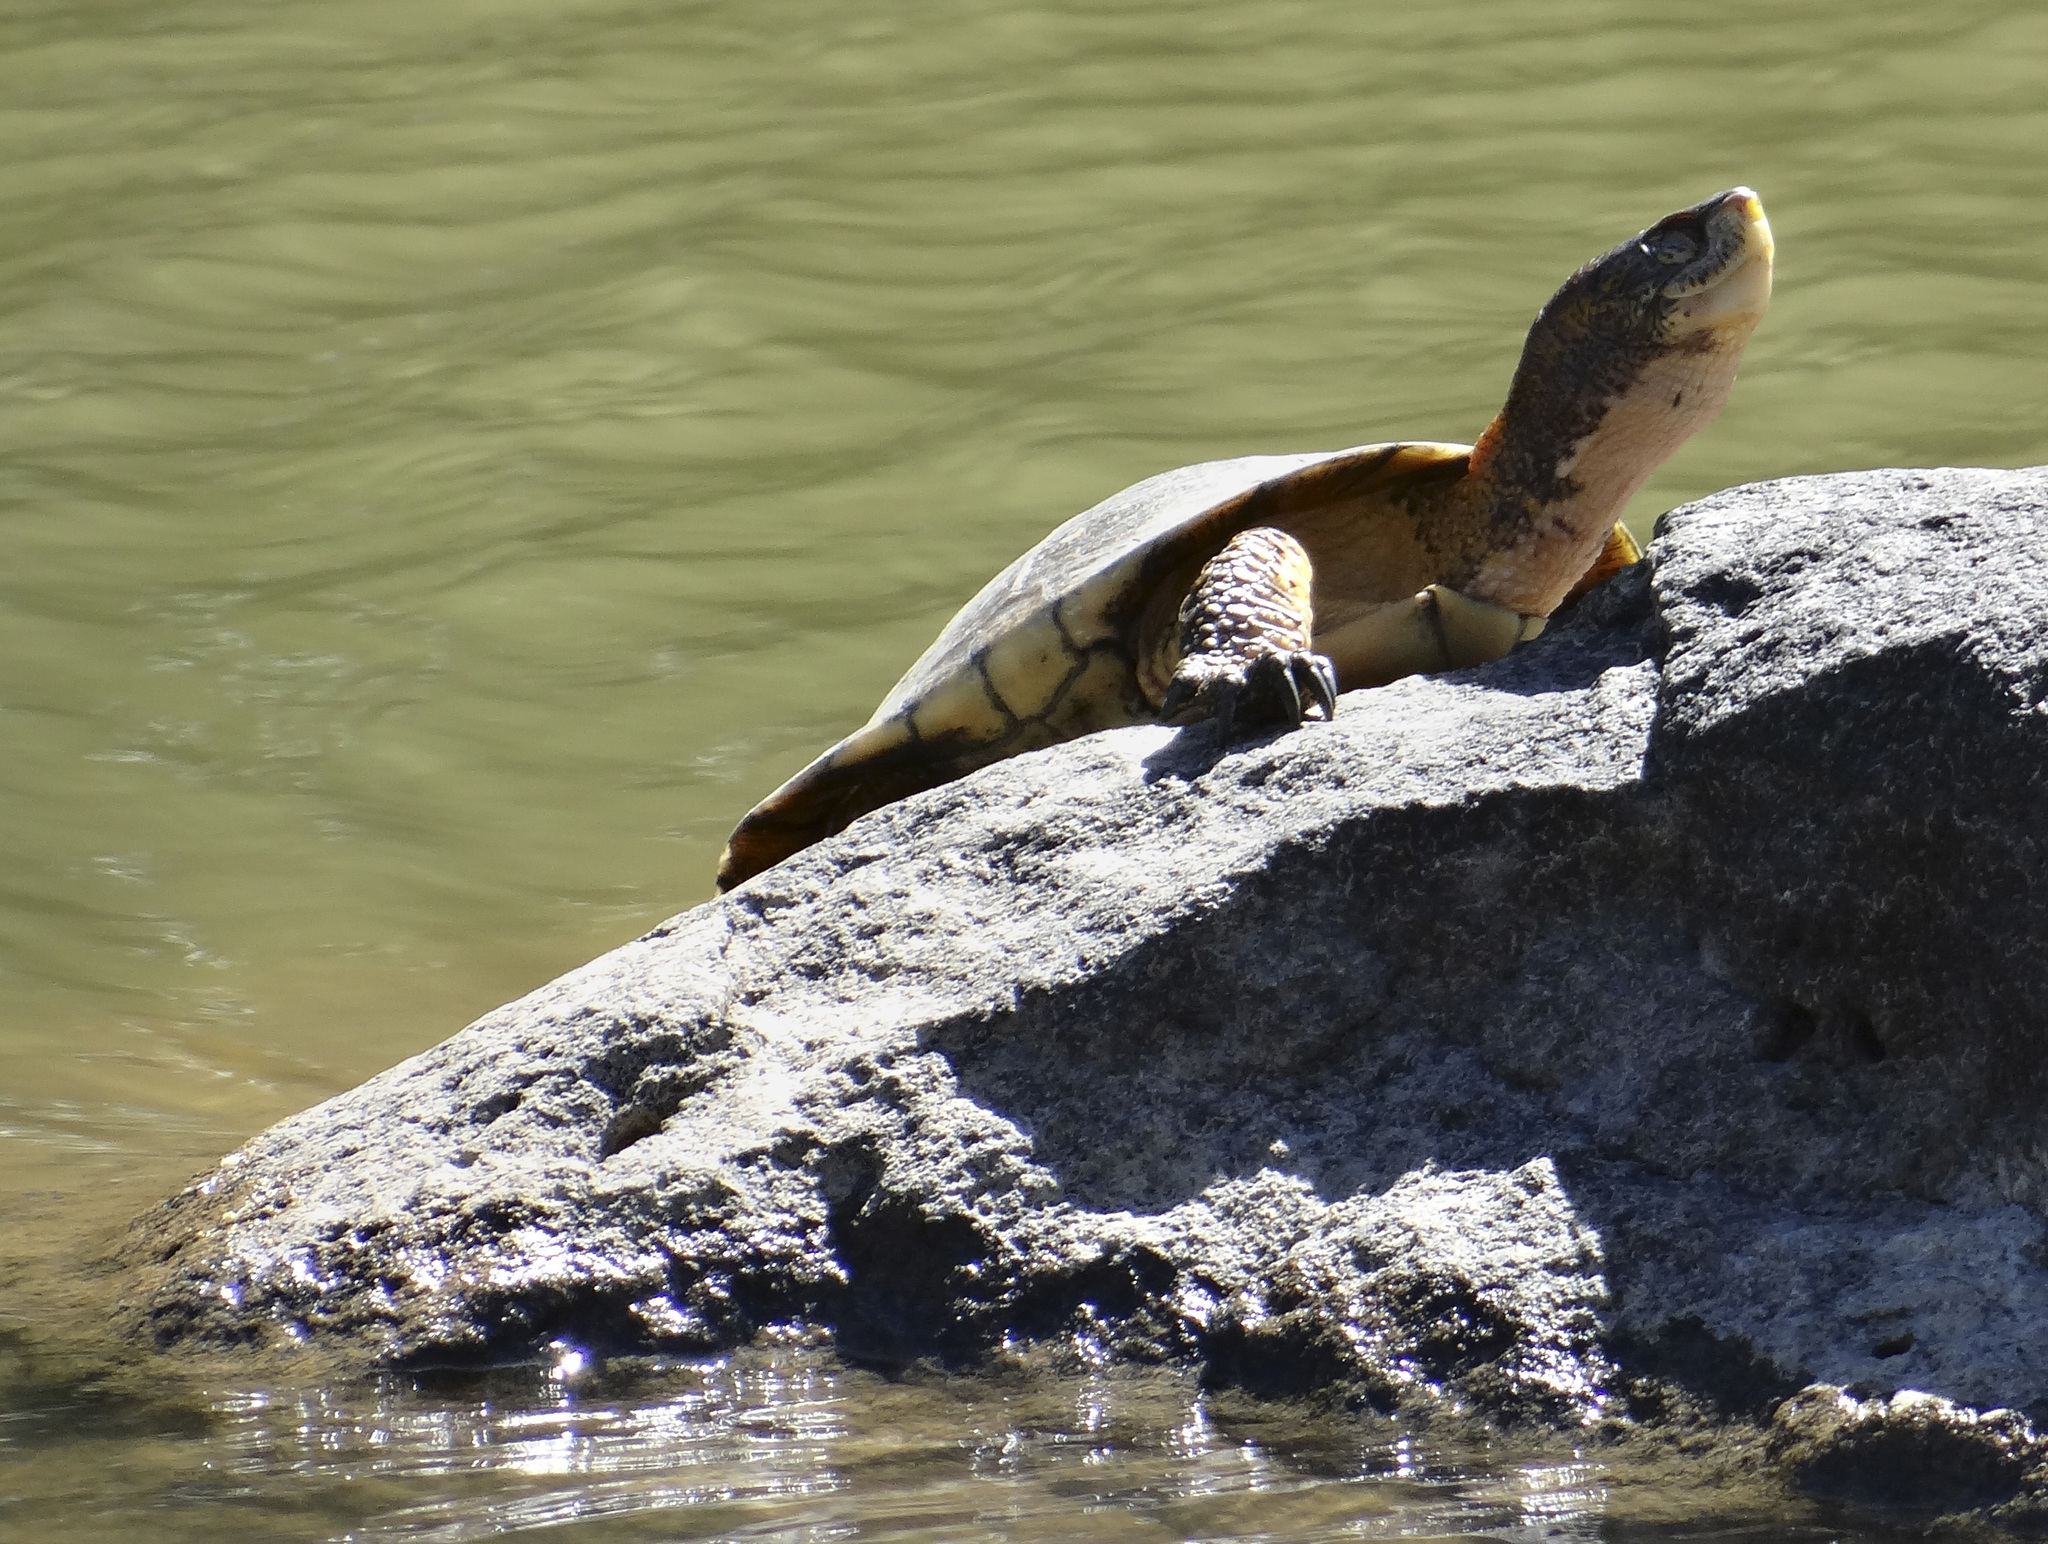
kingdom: Animalia
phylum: Chordata
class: Testudines
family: Emydidae
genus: Actinemys
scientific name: Actinemys marmorata
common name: Western pond turtle
